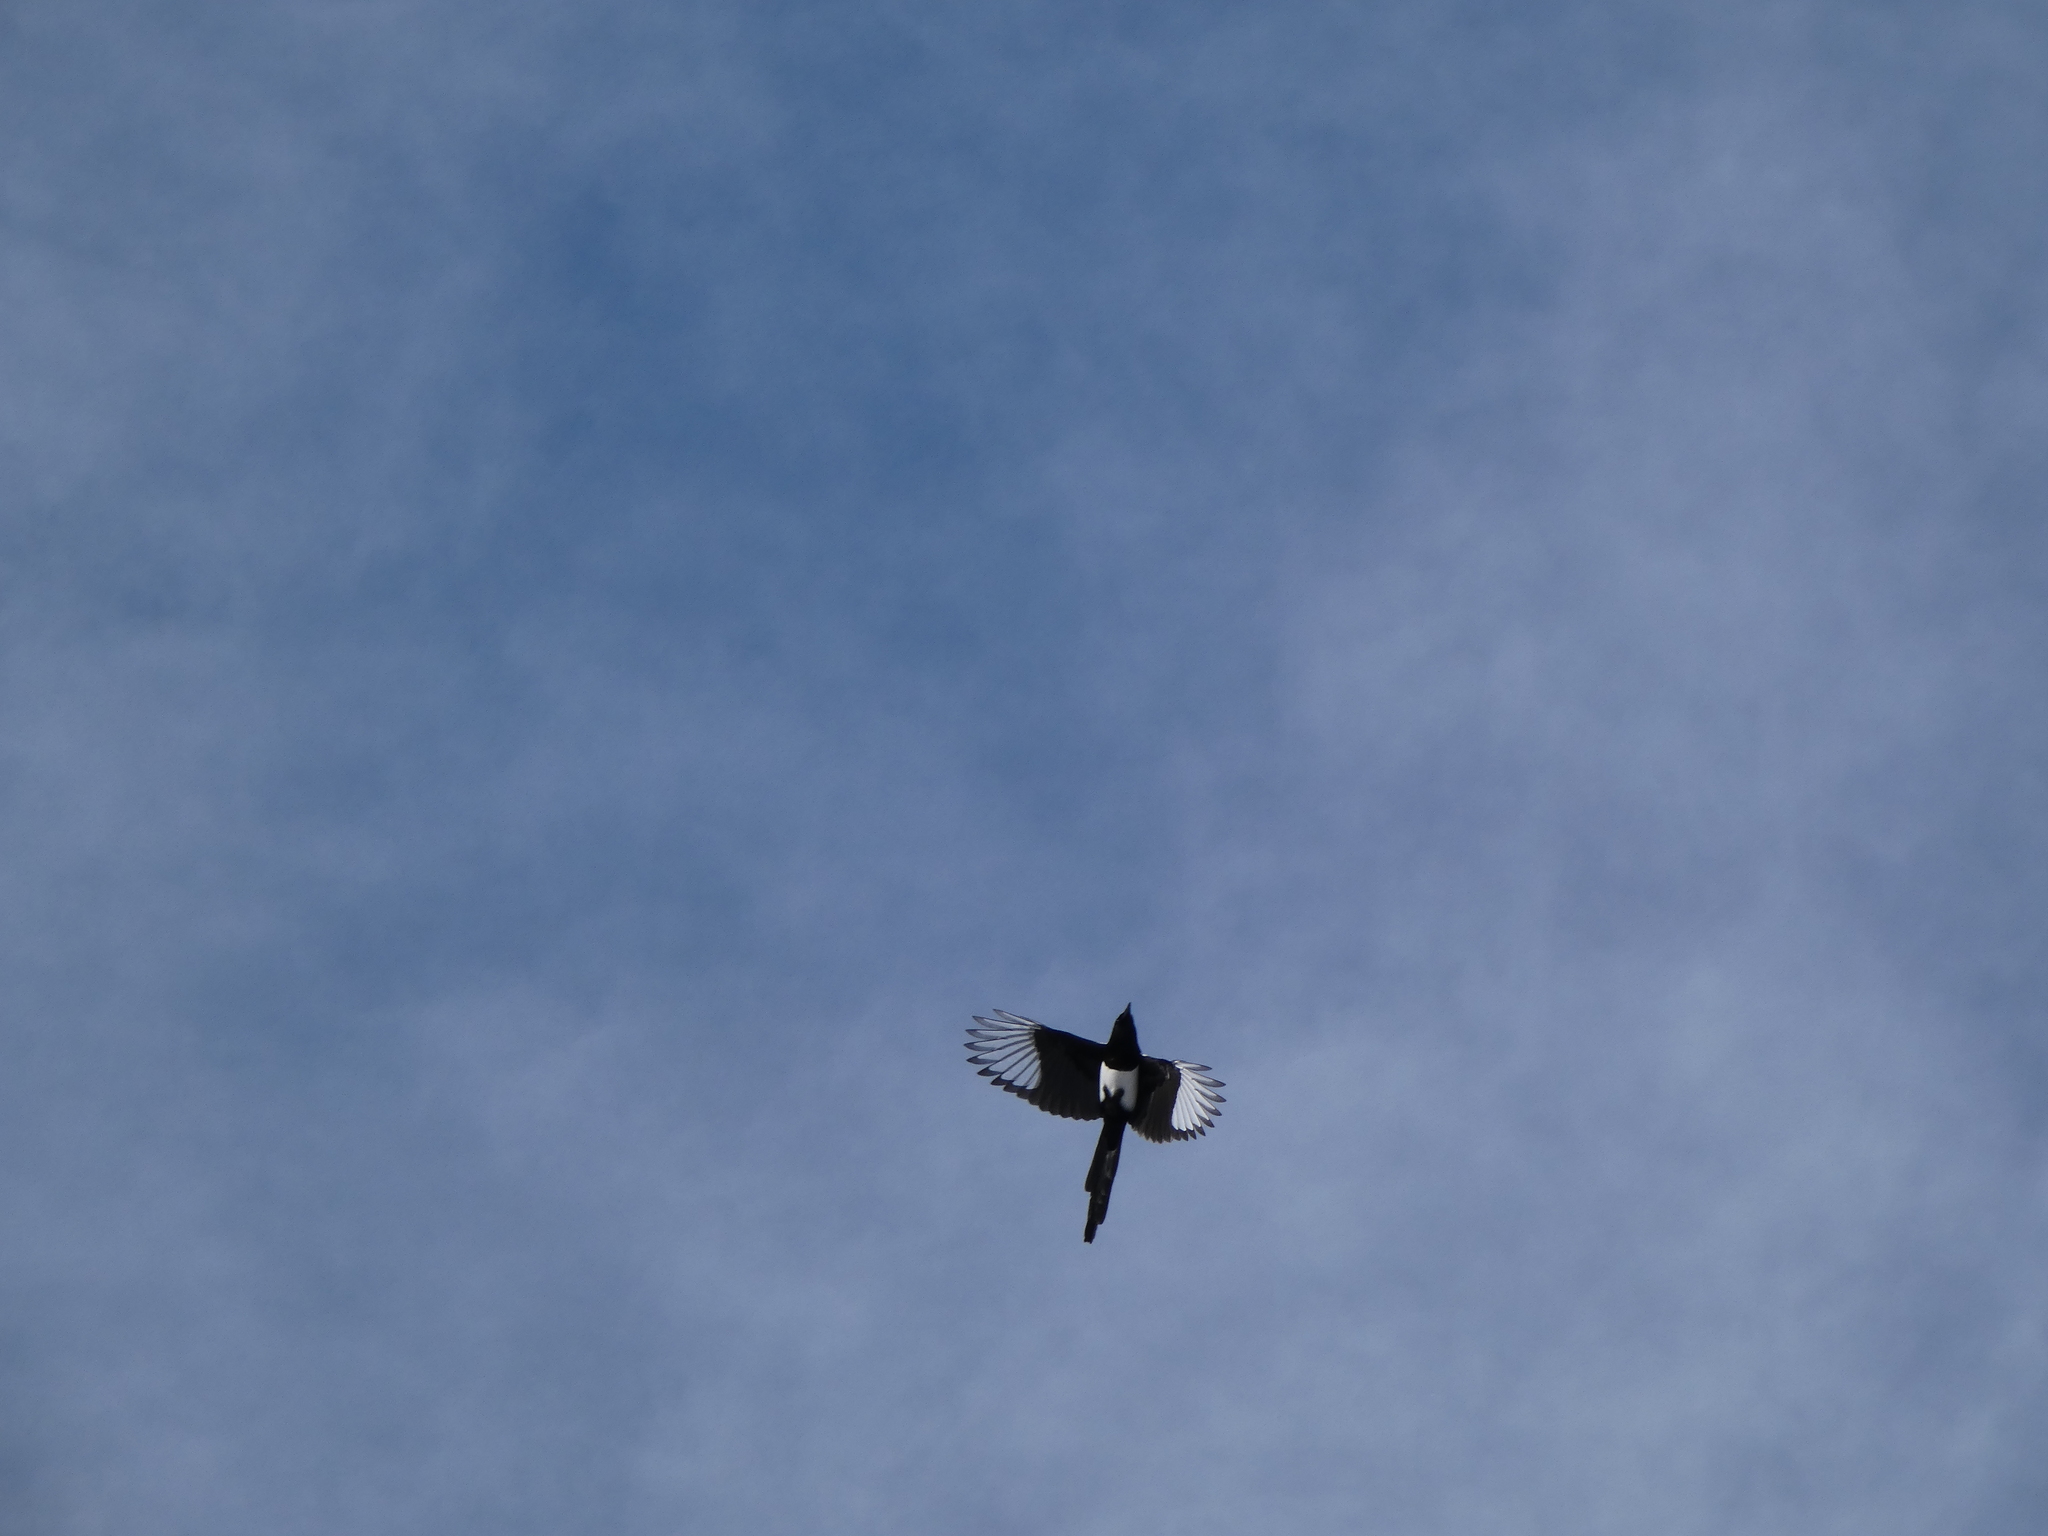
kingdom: Animalia
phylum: Chordata
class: Aves
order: Passeriformes
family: Corvidae
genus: Pica
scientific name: Pica hudsonia
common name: Black-billed magpie
